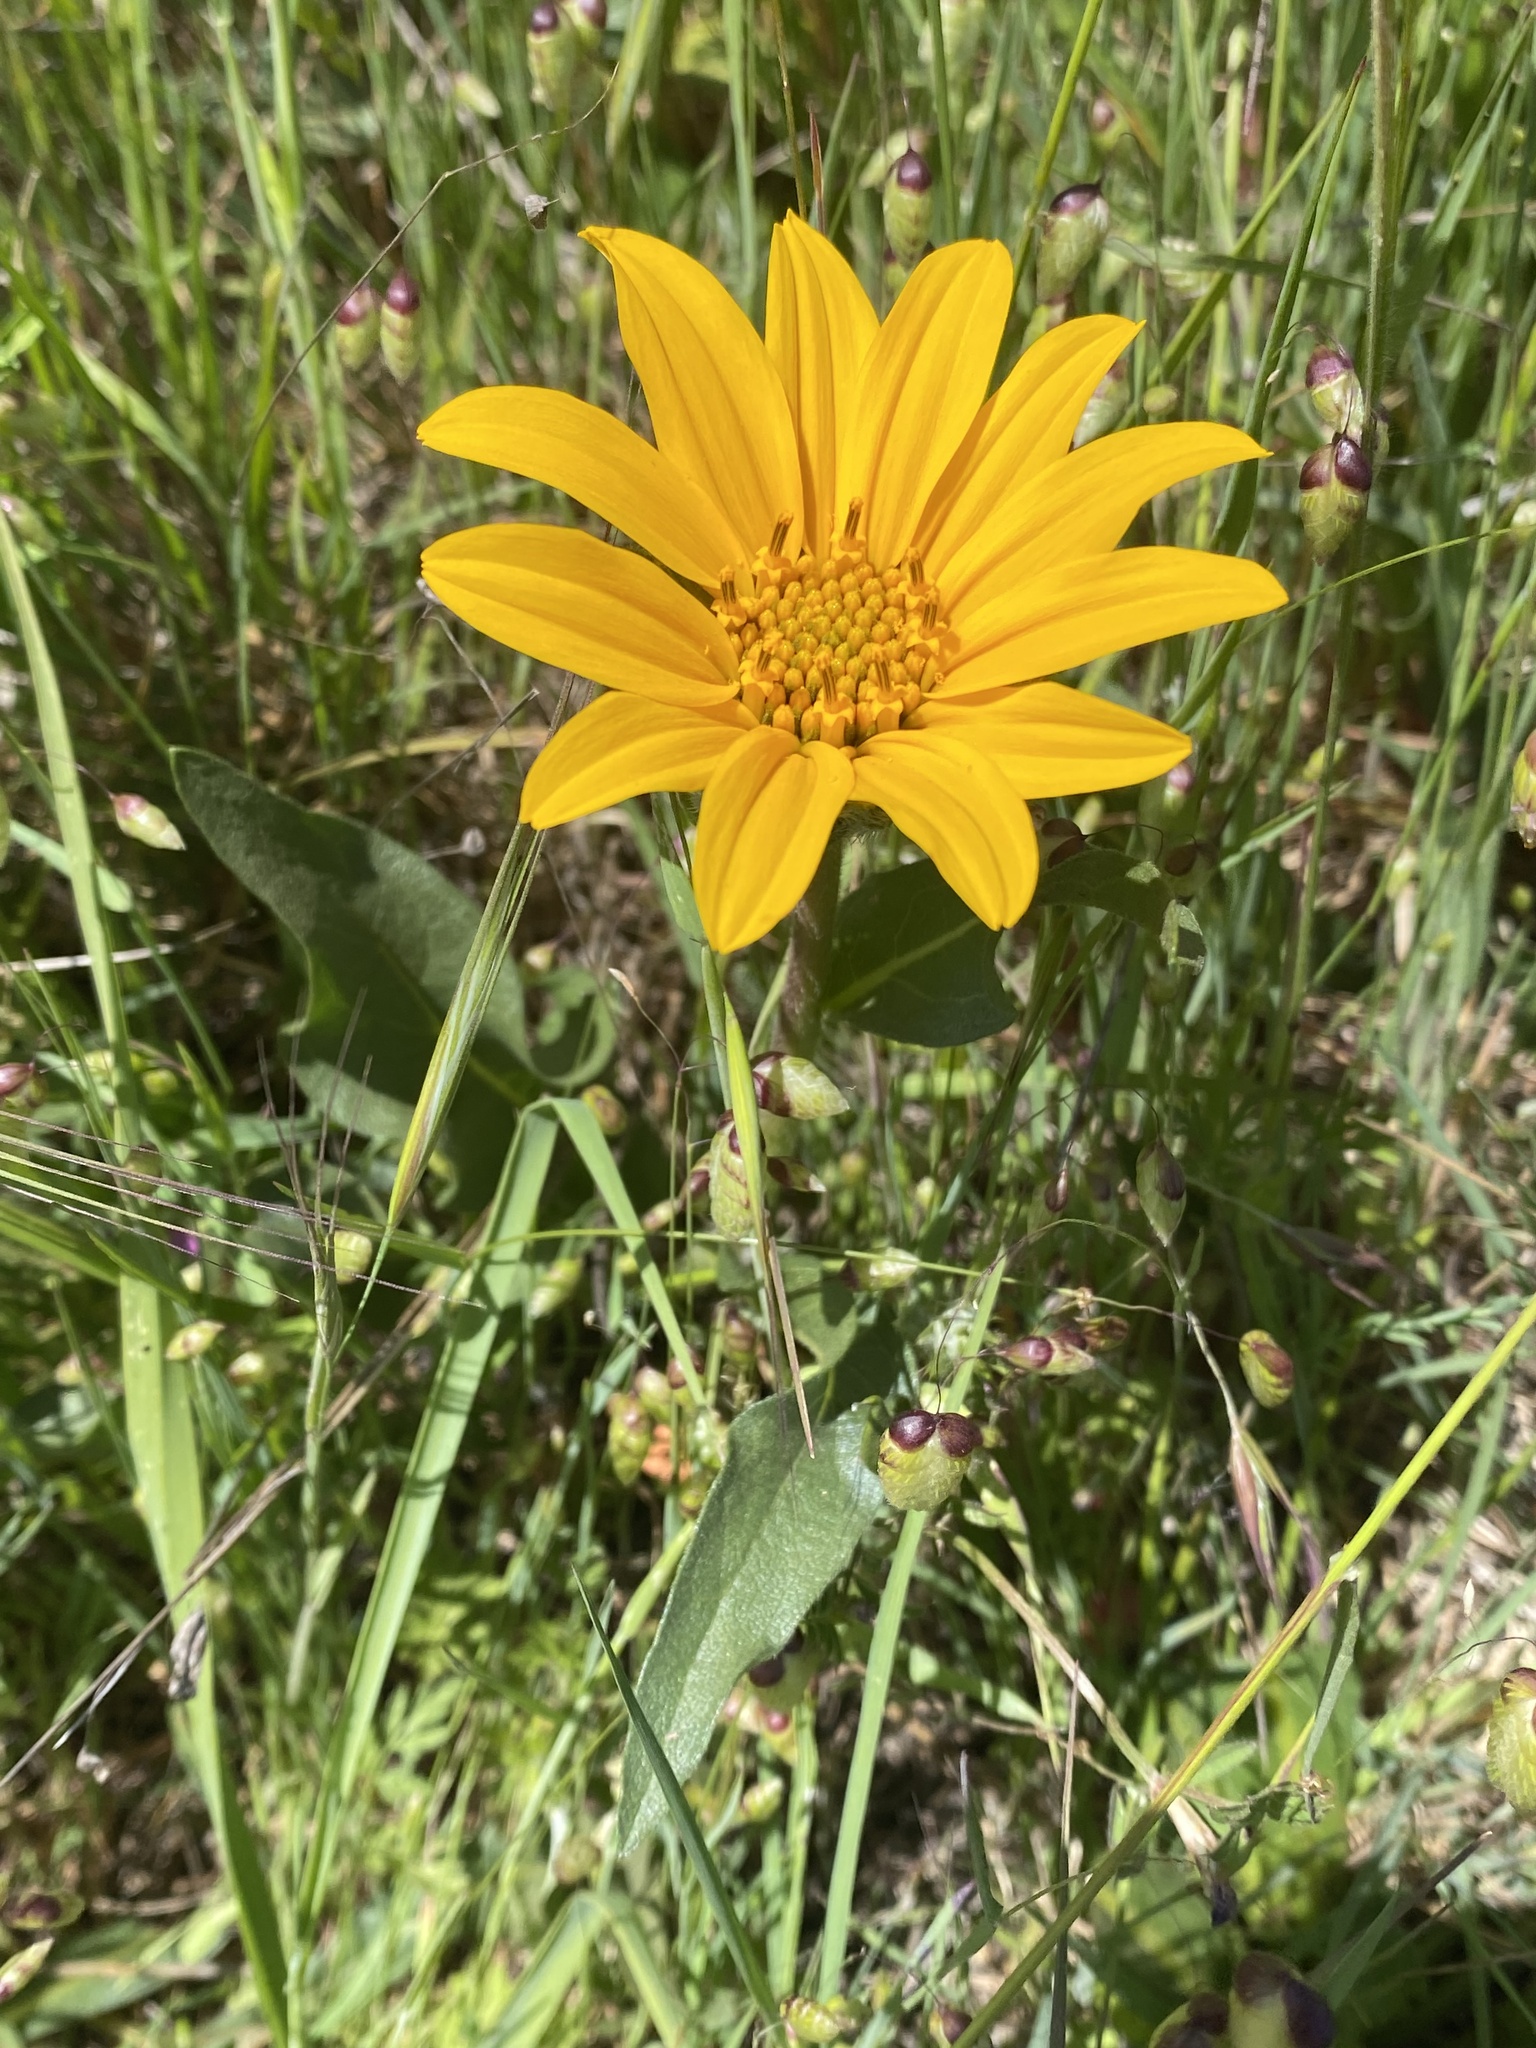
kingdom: Plantae
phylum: Tracheophyta
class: Magnoliopsida
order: Asterales
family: Asteraceae
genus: Wyethia
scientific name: Wyethia angustifolia
